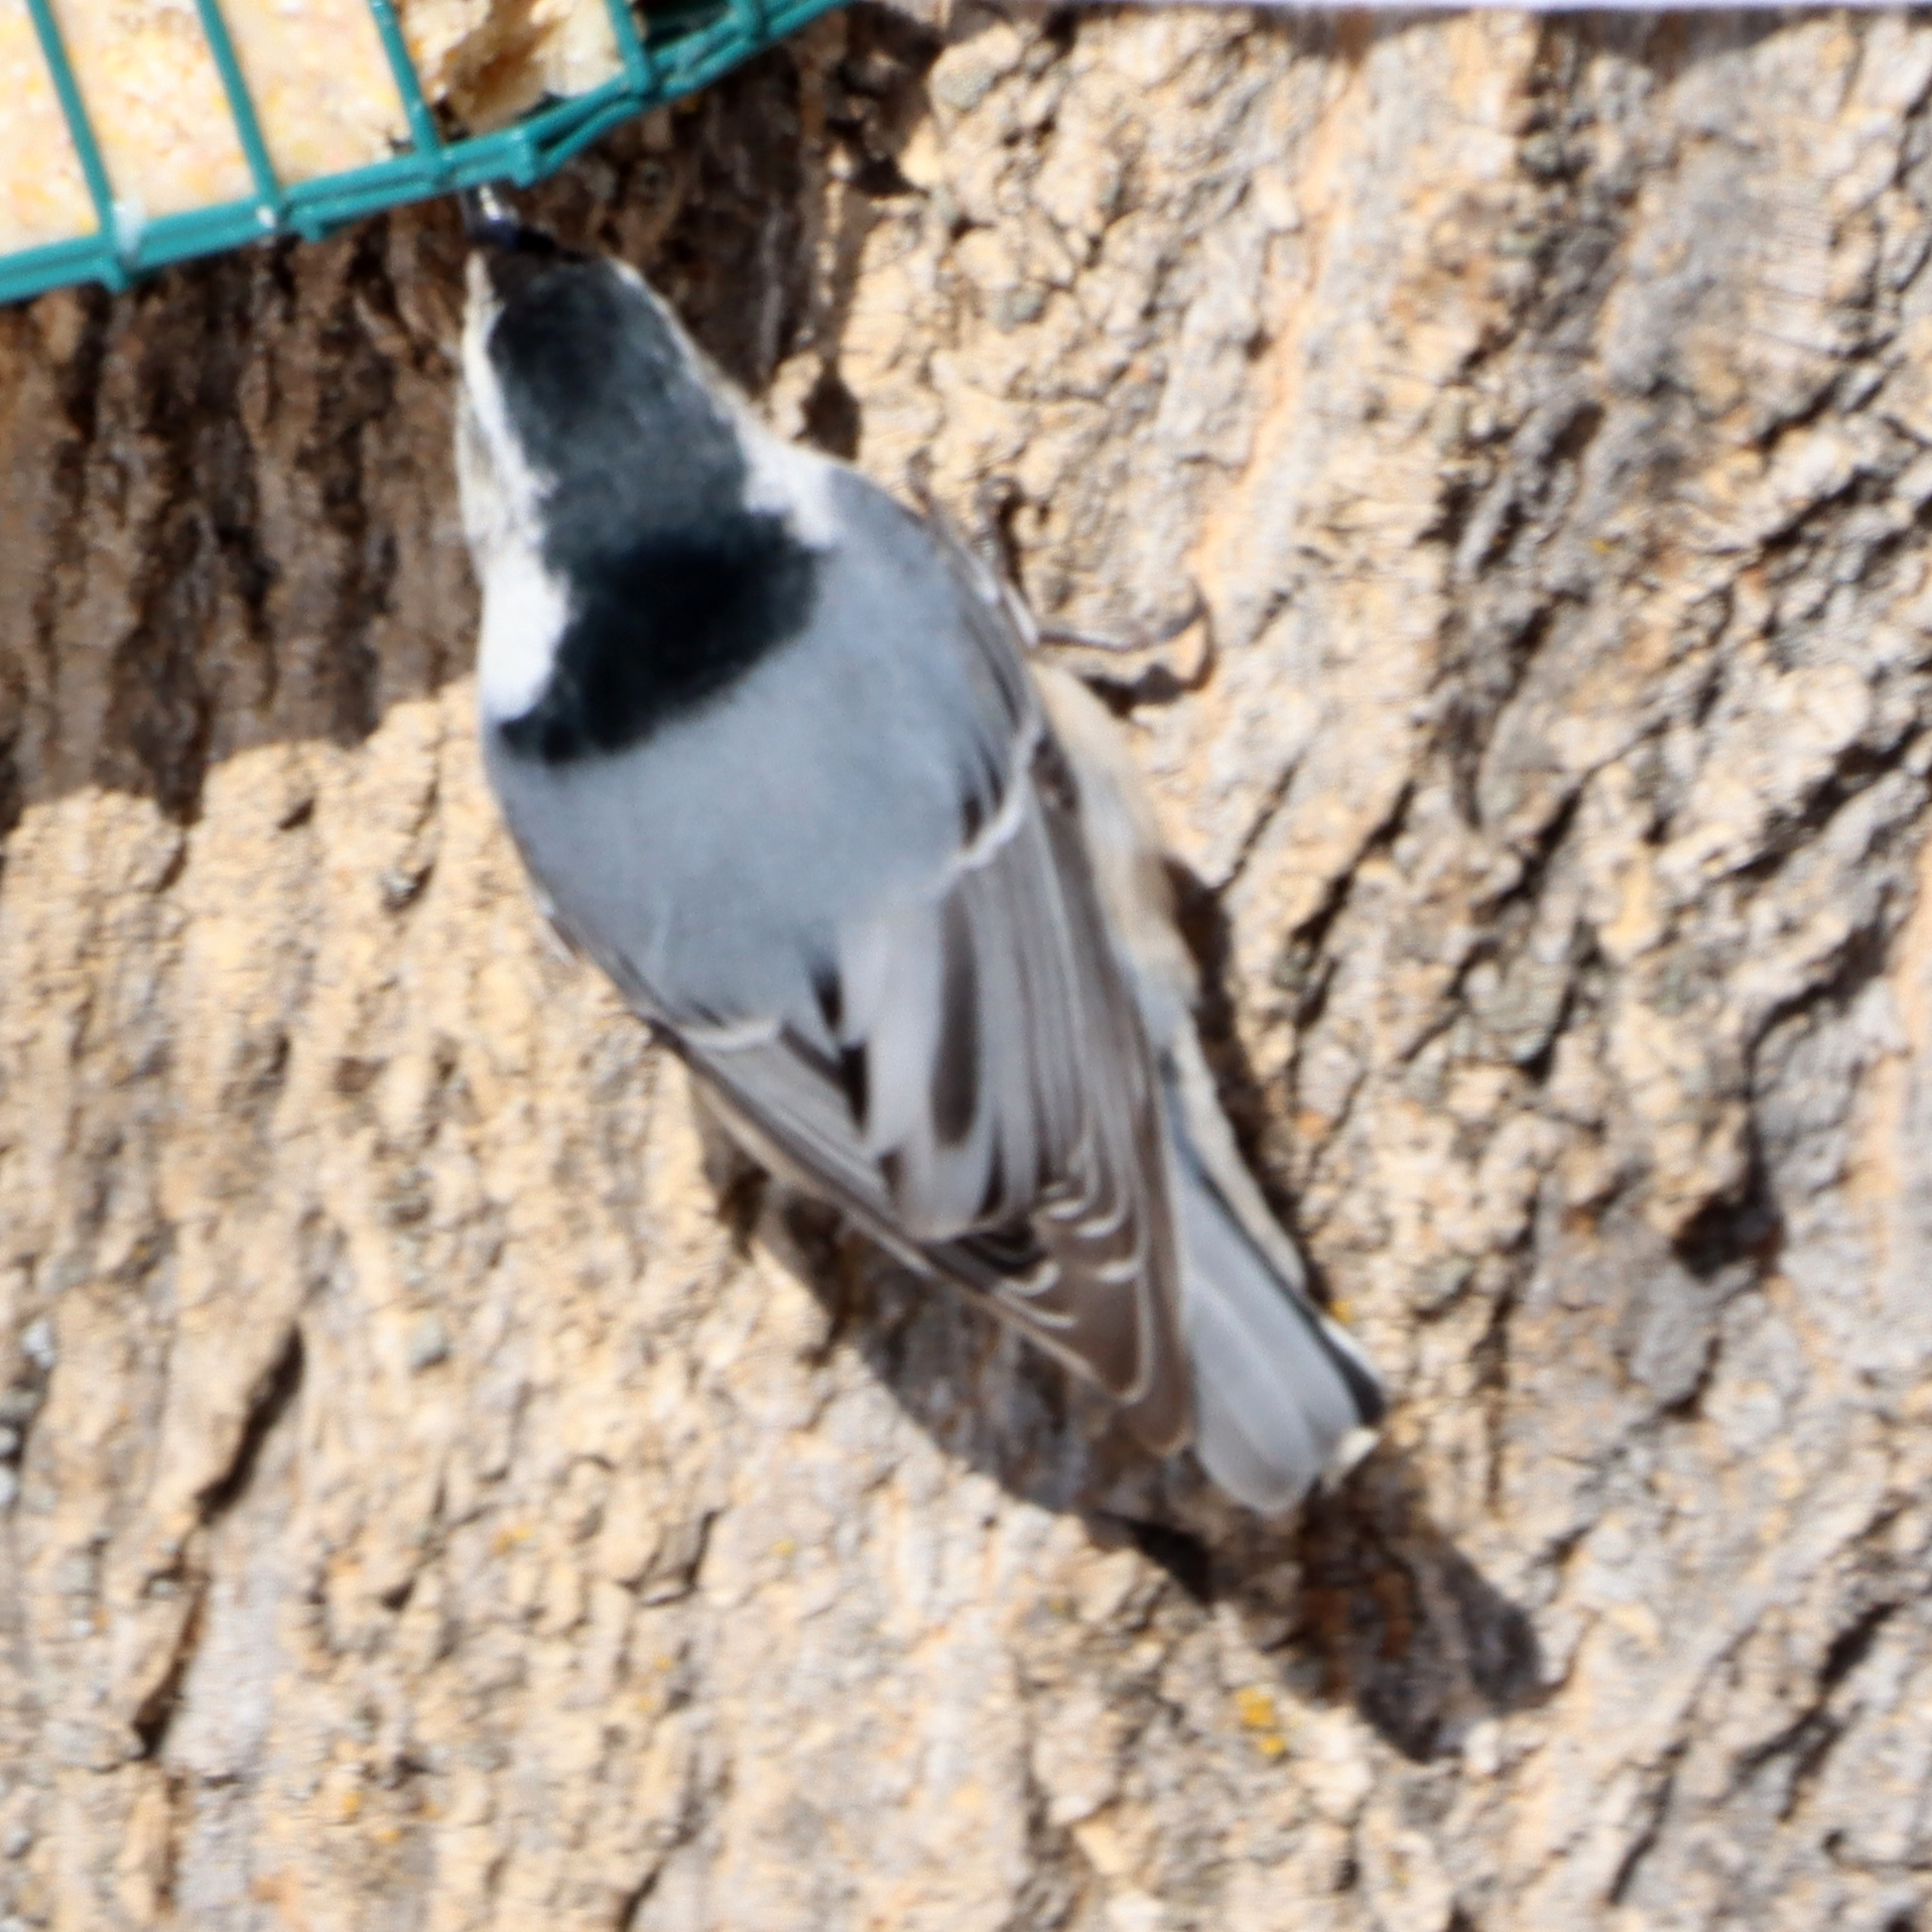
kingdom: Animalia
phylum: Chordata
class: Aves
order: Passeriformes
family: Sittidae
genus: Sitta
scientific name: Sitta carolinensis
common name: White-breasted nuthatch
